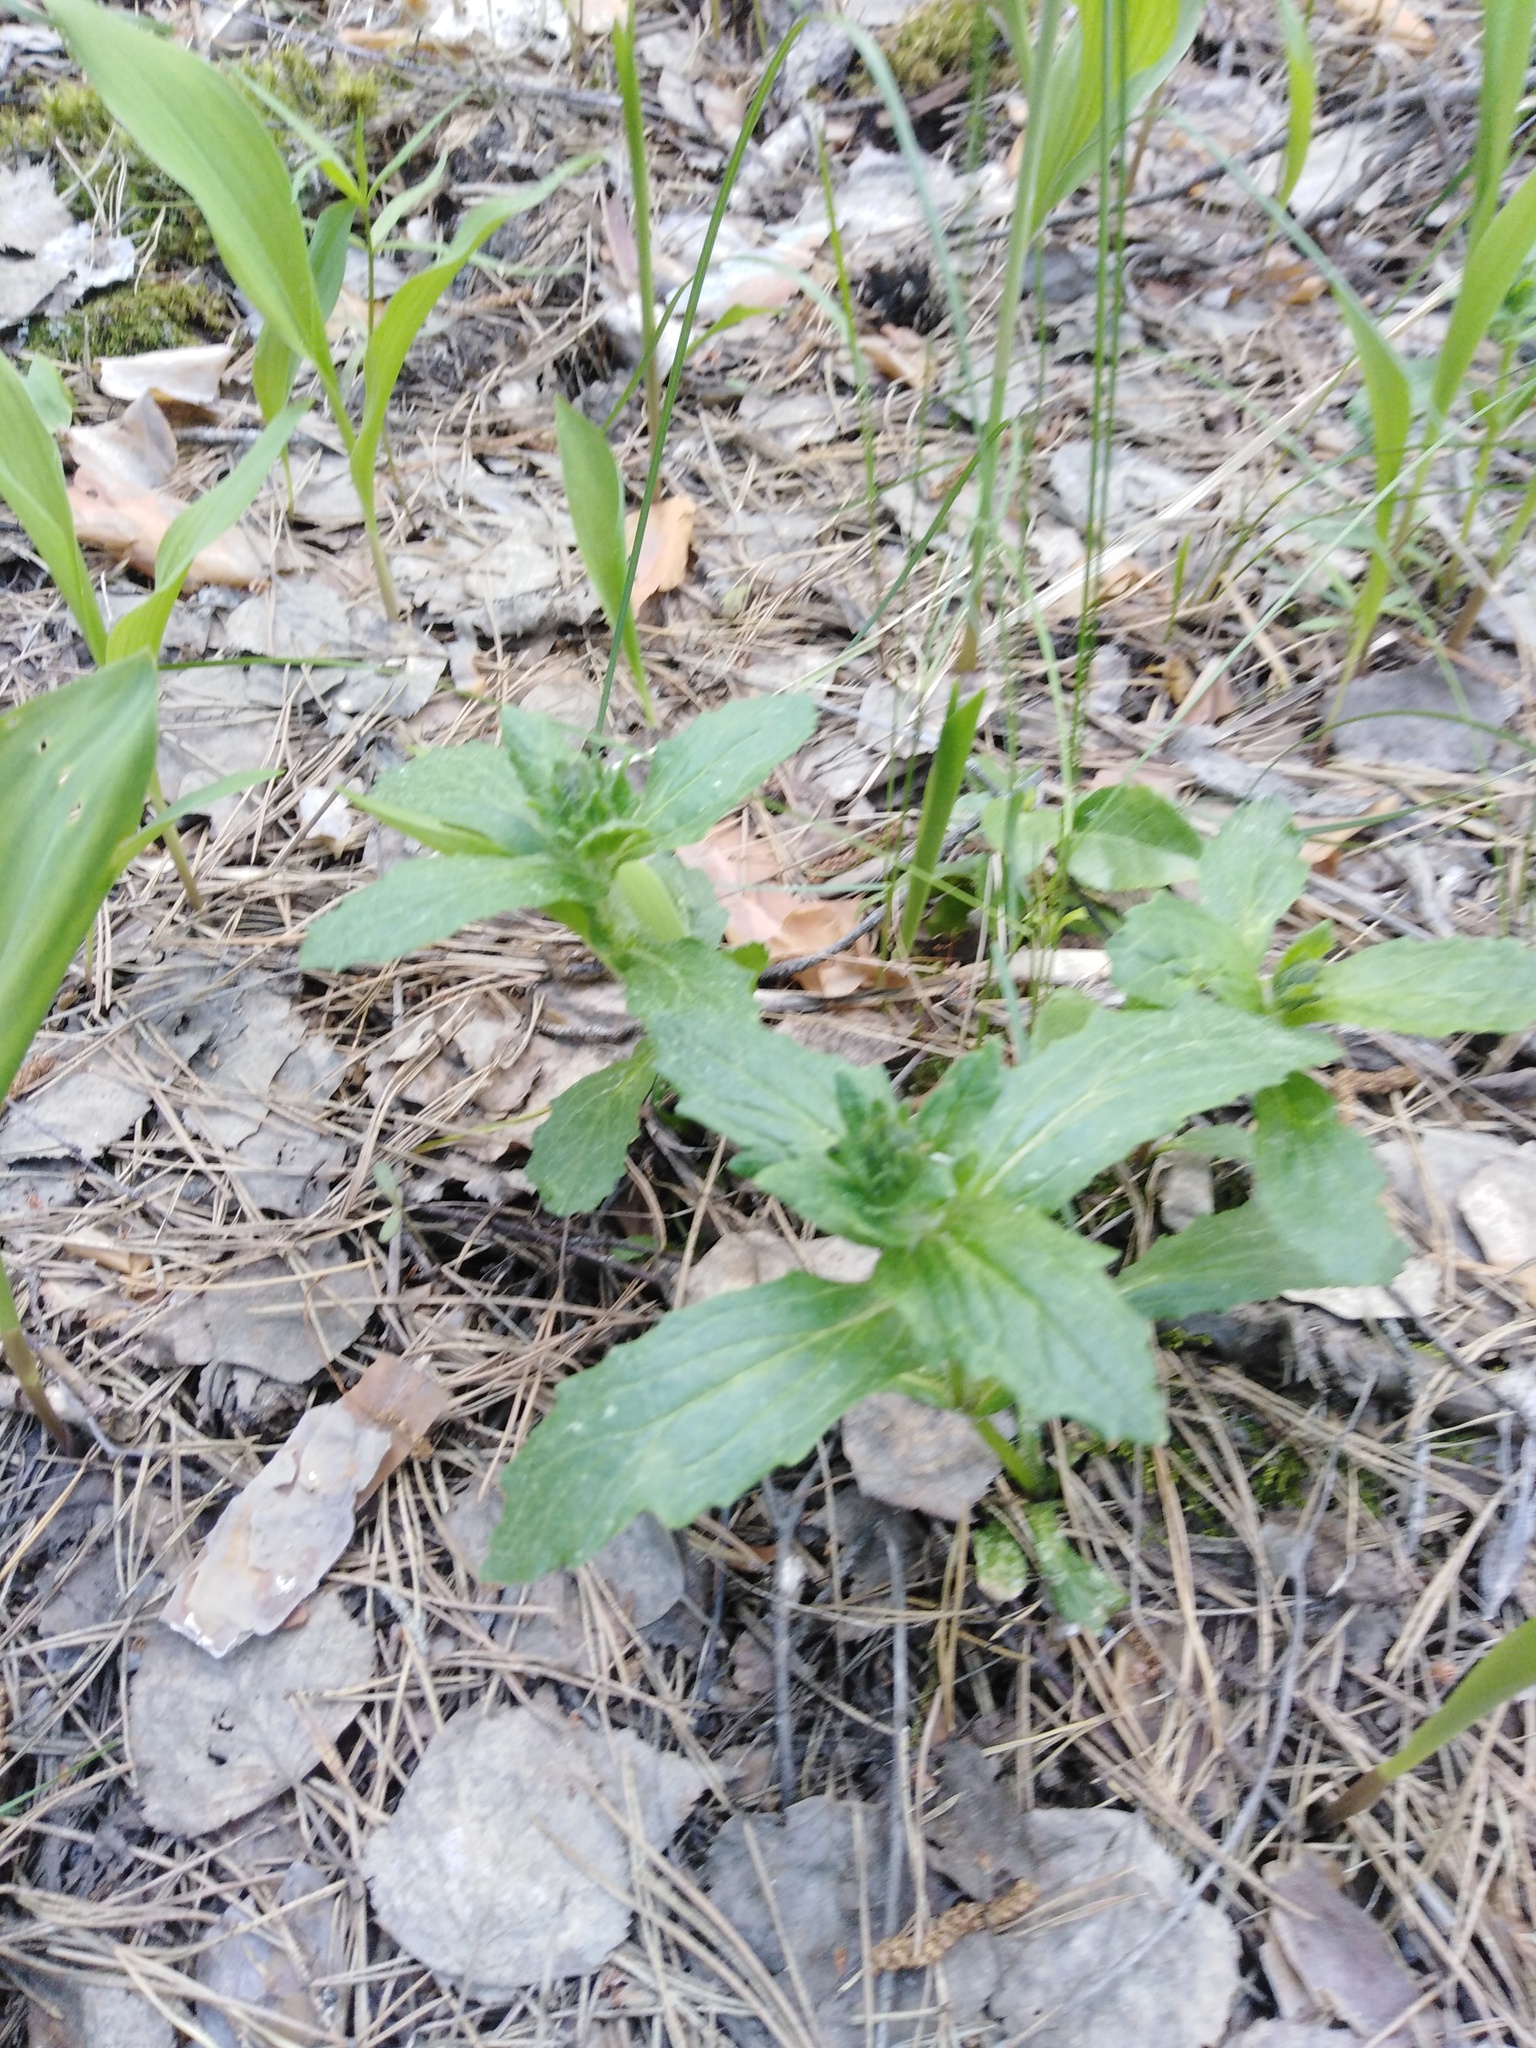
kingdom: Plantae
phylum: Tracheophyta
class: Magnoliopsida
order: Lamiales
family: Lamiaceae
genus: Ajuga
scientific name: Ajuga genevensis
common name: Blue bugle
